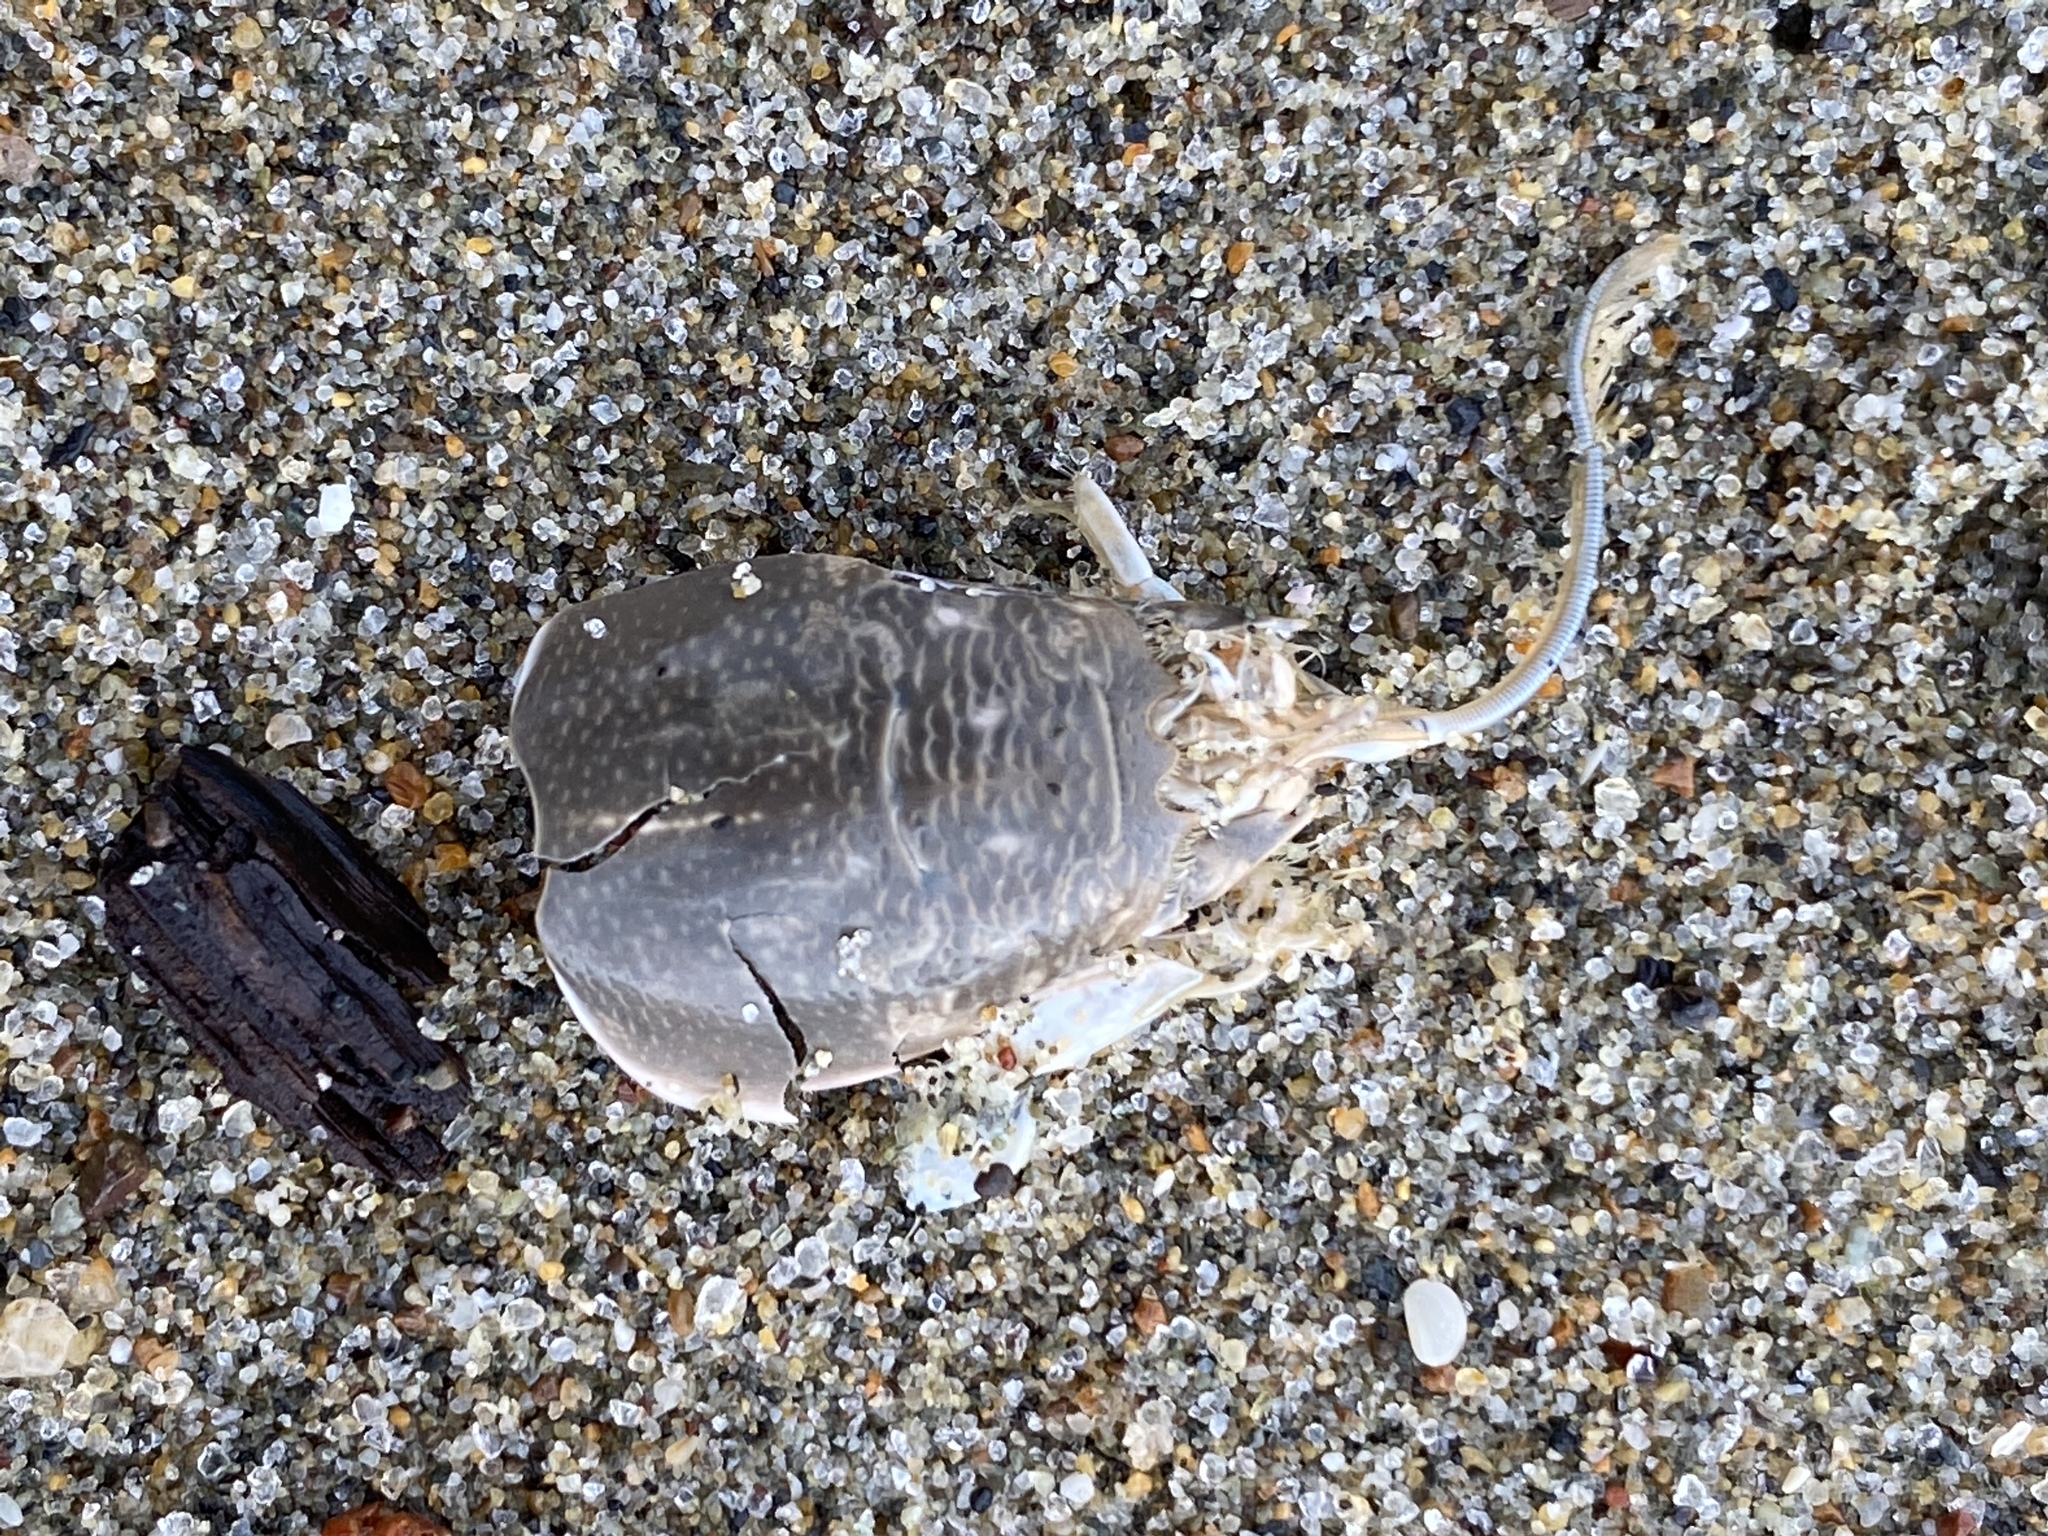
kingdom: Animalia
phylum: Arthropoda
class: Malacostraca
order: Decapoda
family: Hippidae
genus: Emerita
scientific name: Emerita analoga
